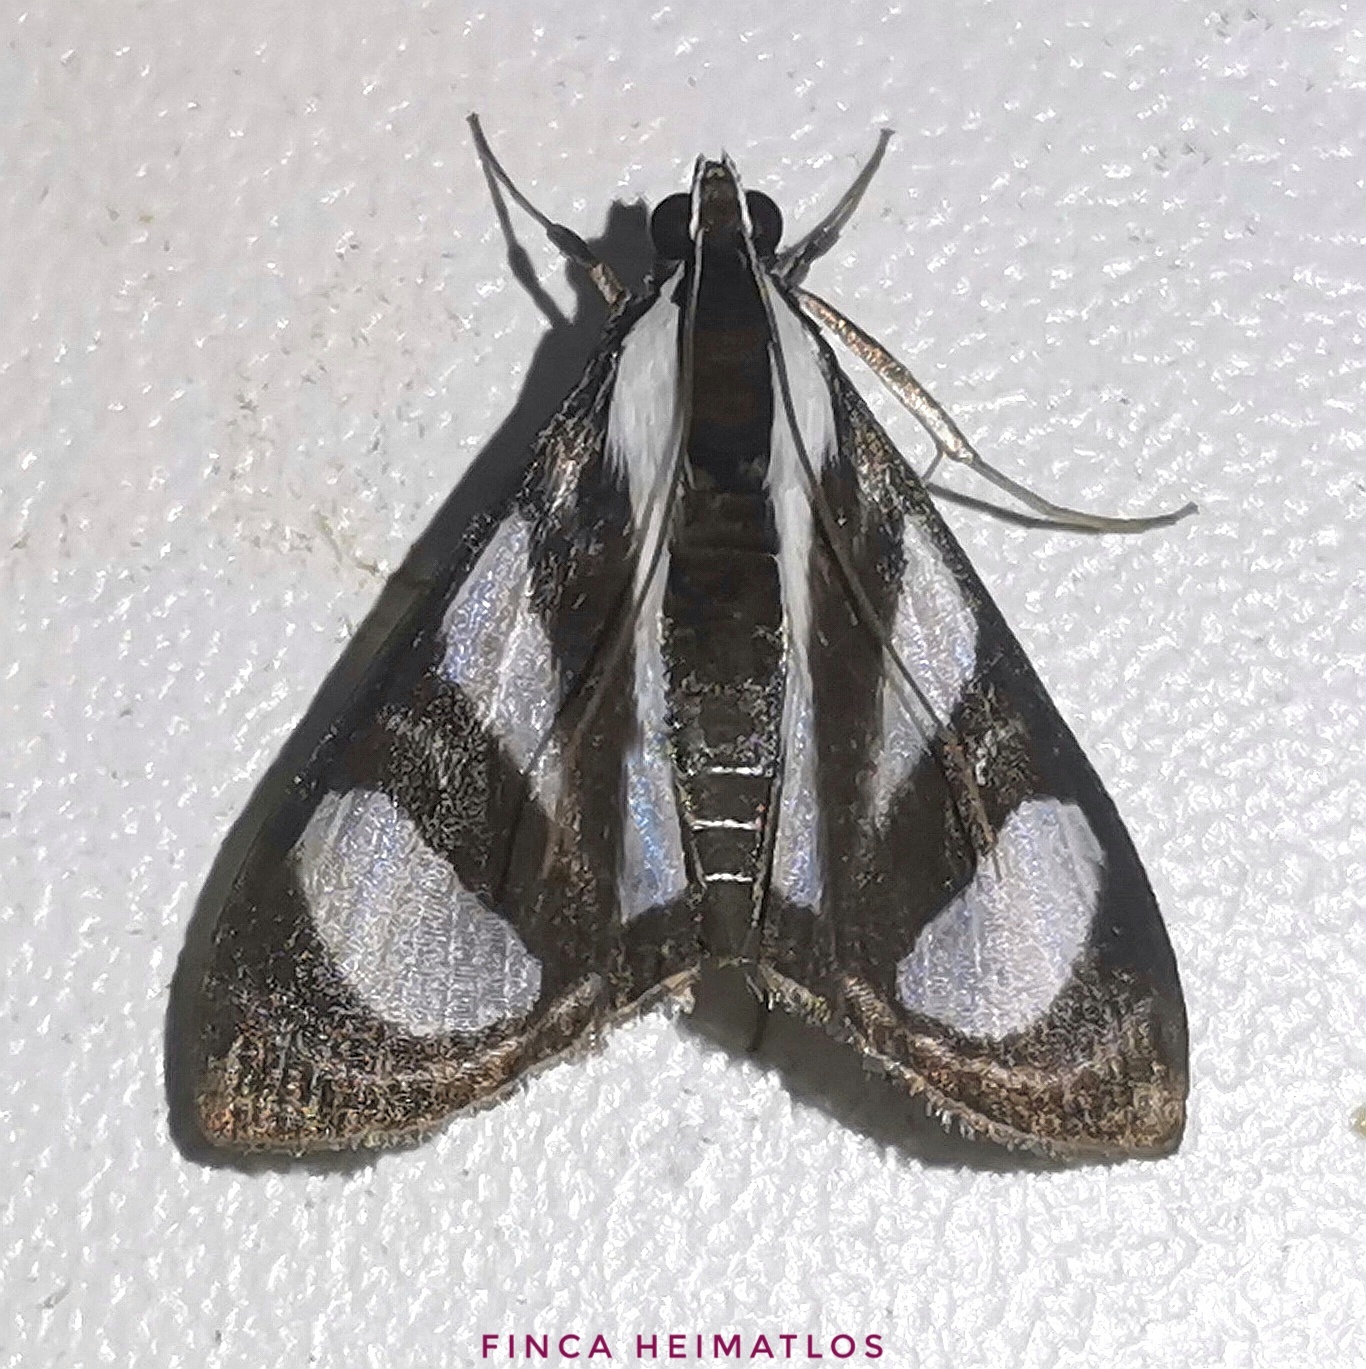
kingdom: Animalia
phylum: Arthropoda
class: Insecta
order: Lepidoptera
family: Crambidae
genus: Glyphodes
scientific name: Glyphodes confinis
